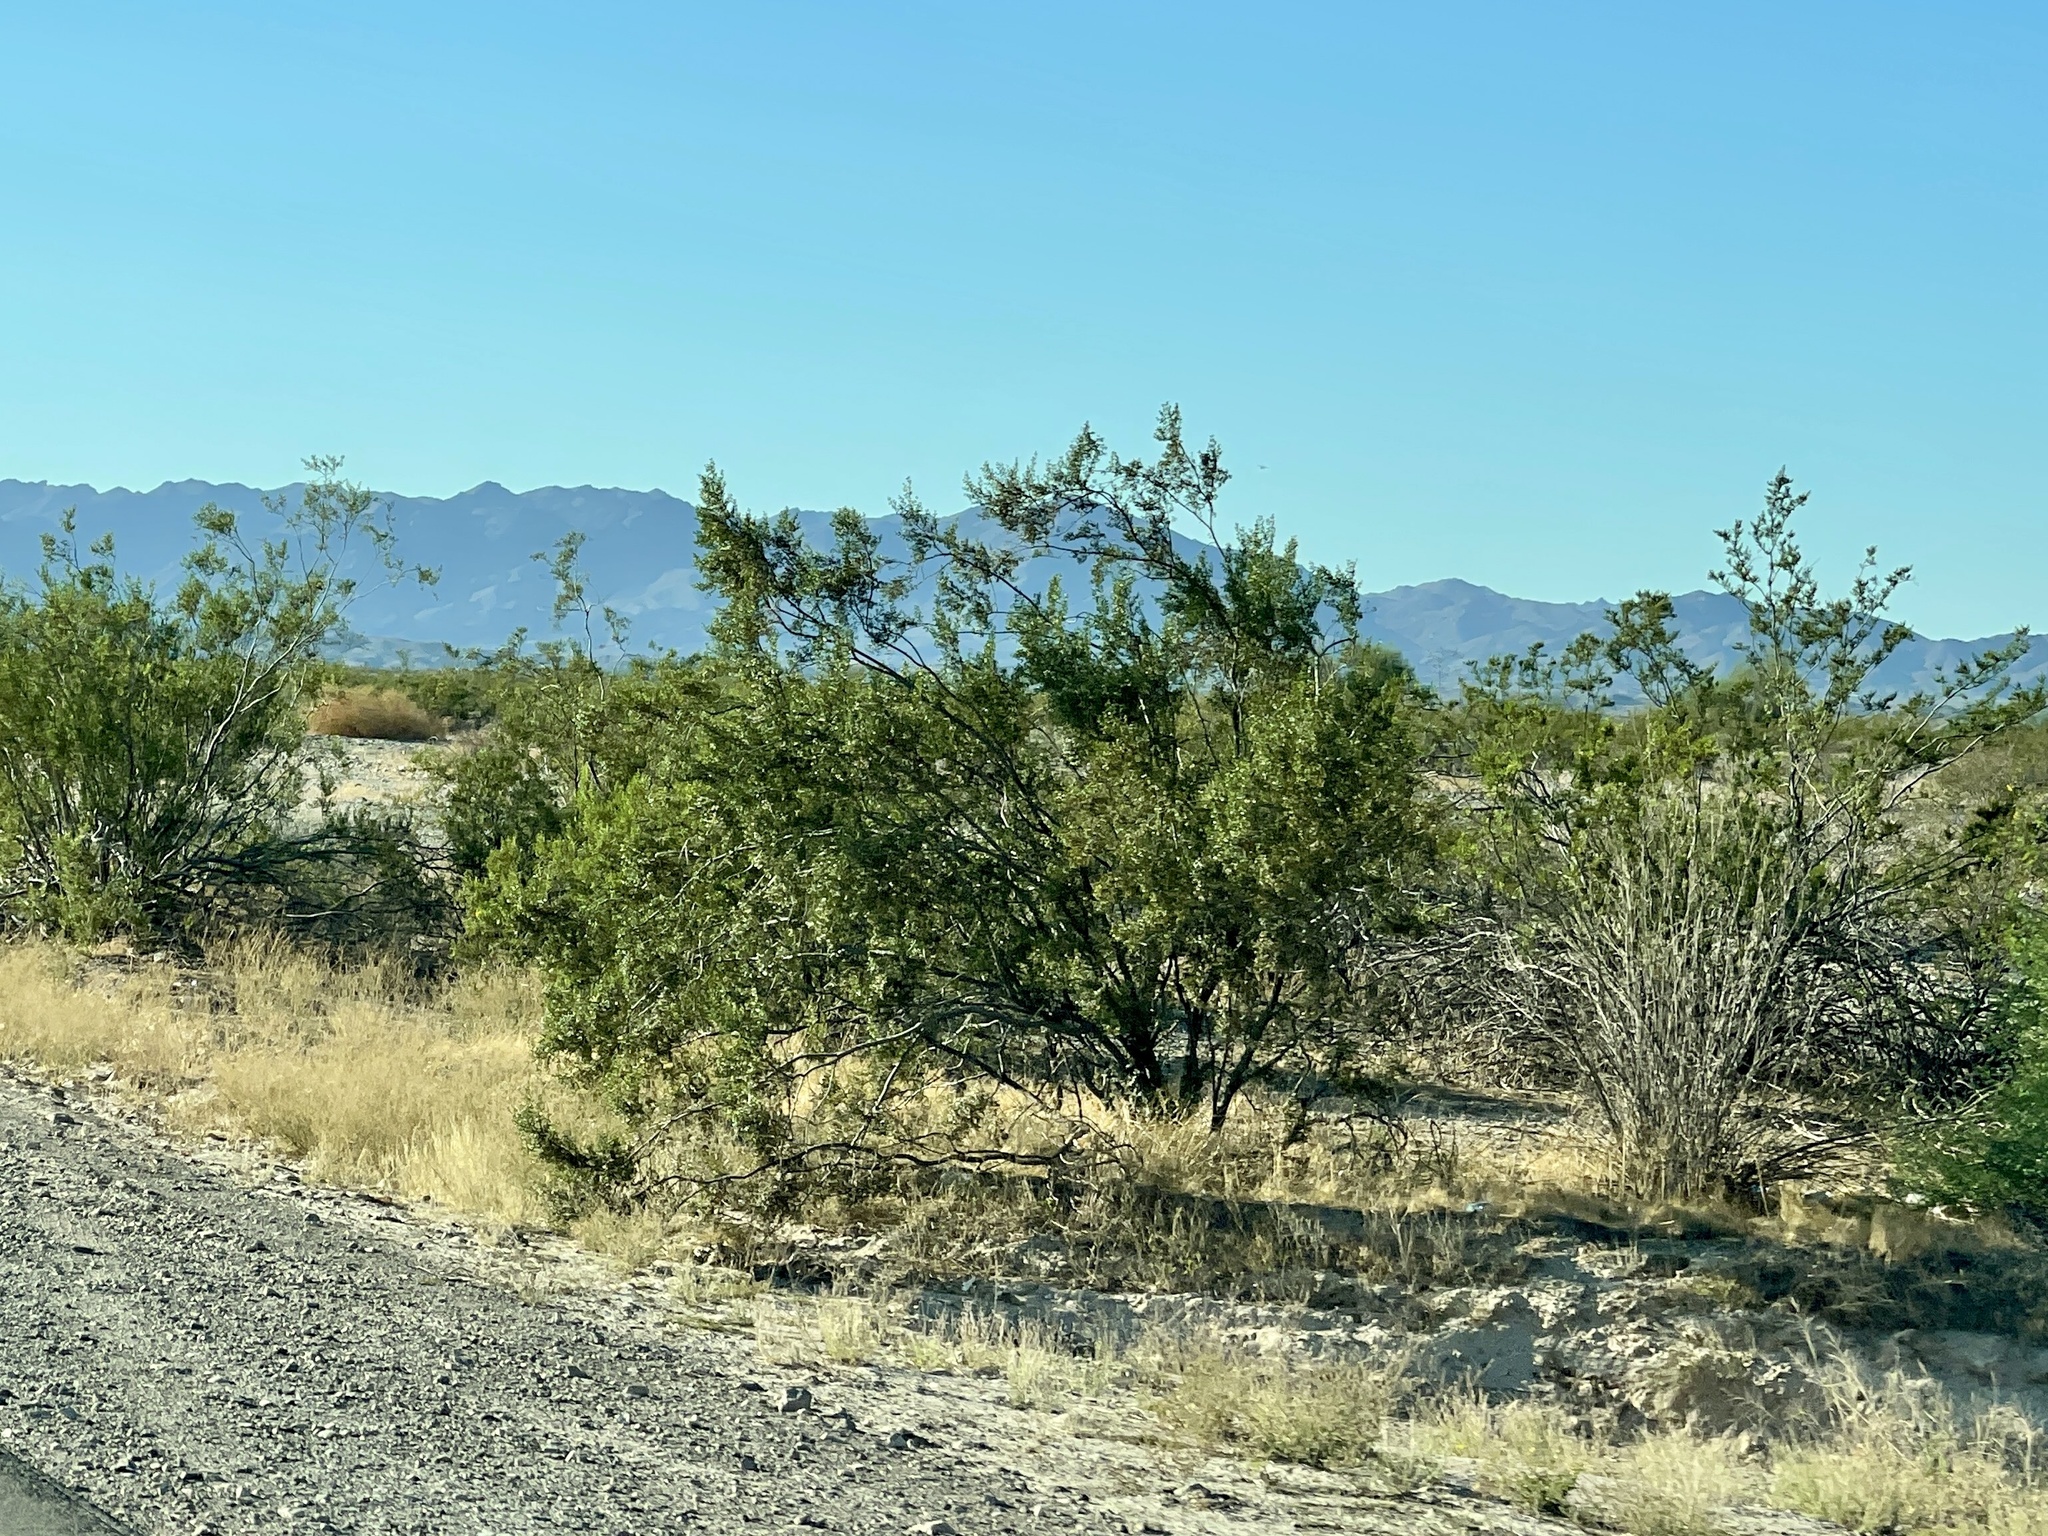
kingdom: Plantae
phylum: Tracheophyta
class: Magnoliopsida
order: Zygophyllales
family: Zygophyllaceae
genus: Larrea
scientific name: Larrea tridentata
